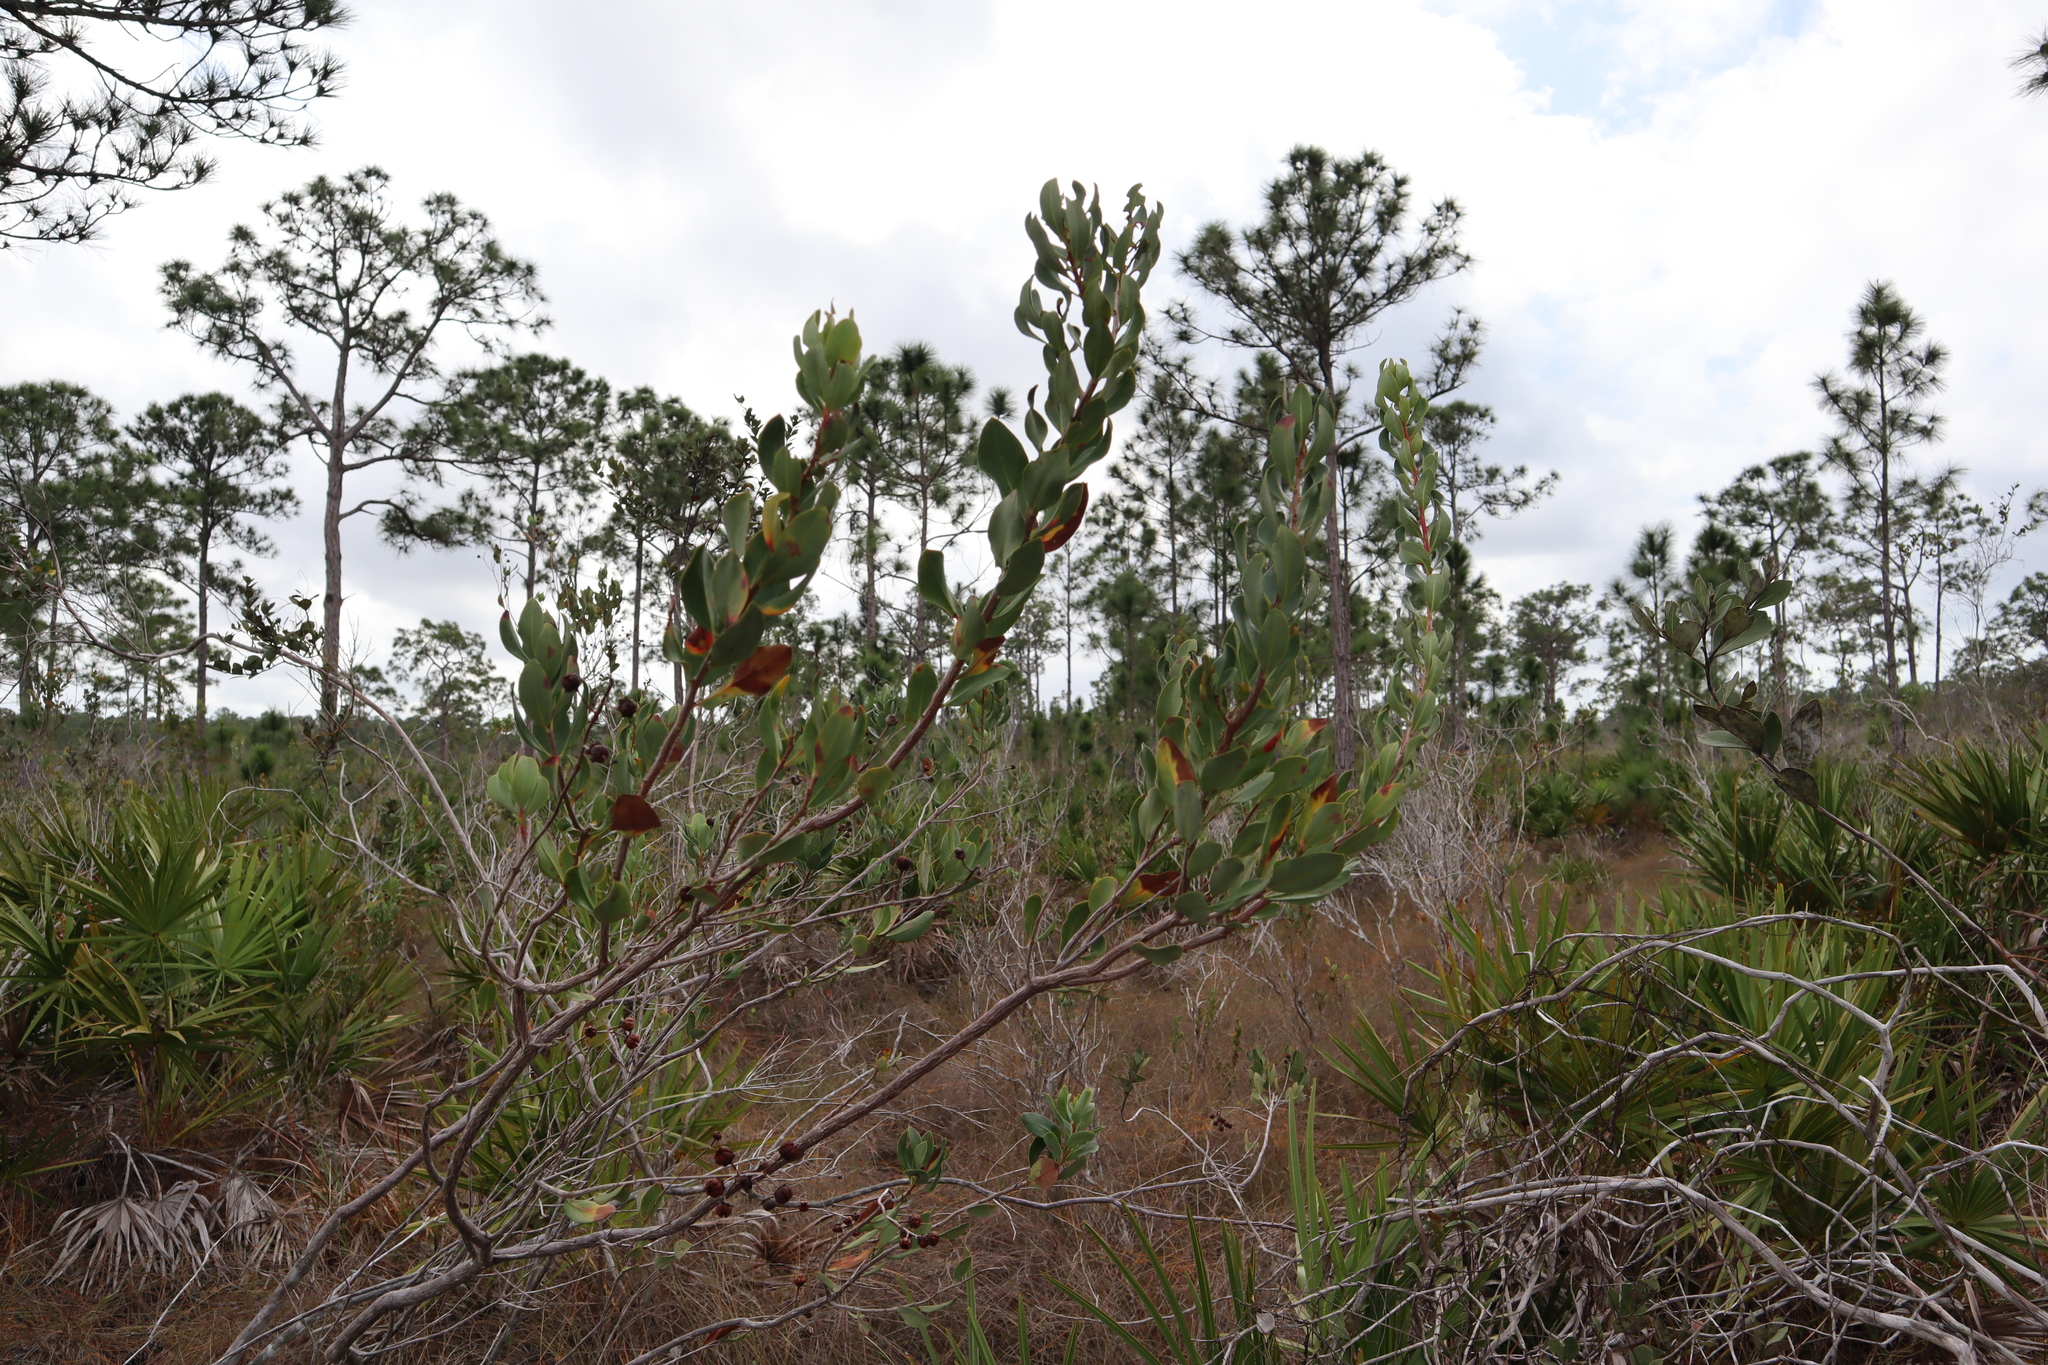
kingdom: Plantae
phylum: Tracheophyta
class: Magnoliopsida
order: Ericales
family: Ericaceae
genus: Bejaria
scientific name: Bejaria racemosa
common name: Tarflower
